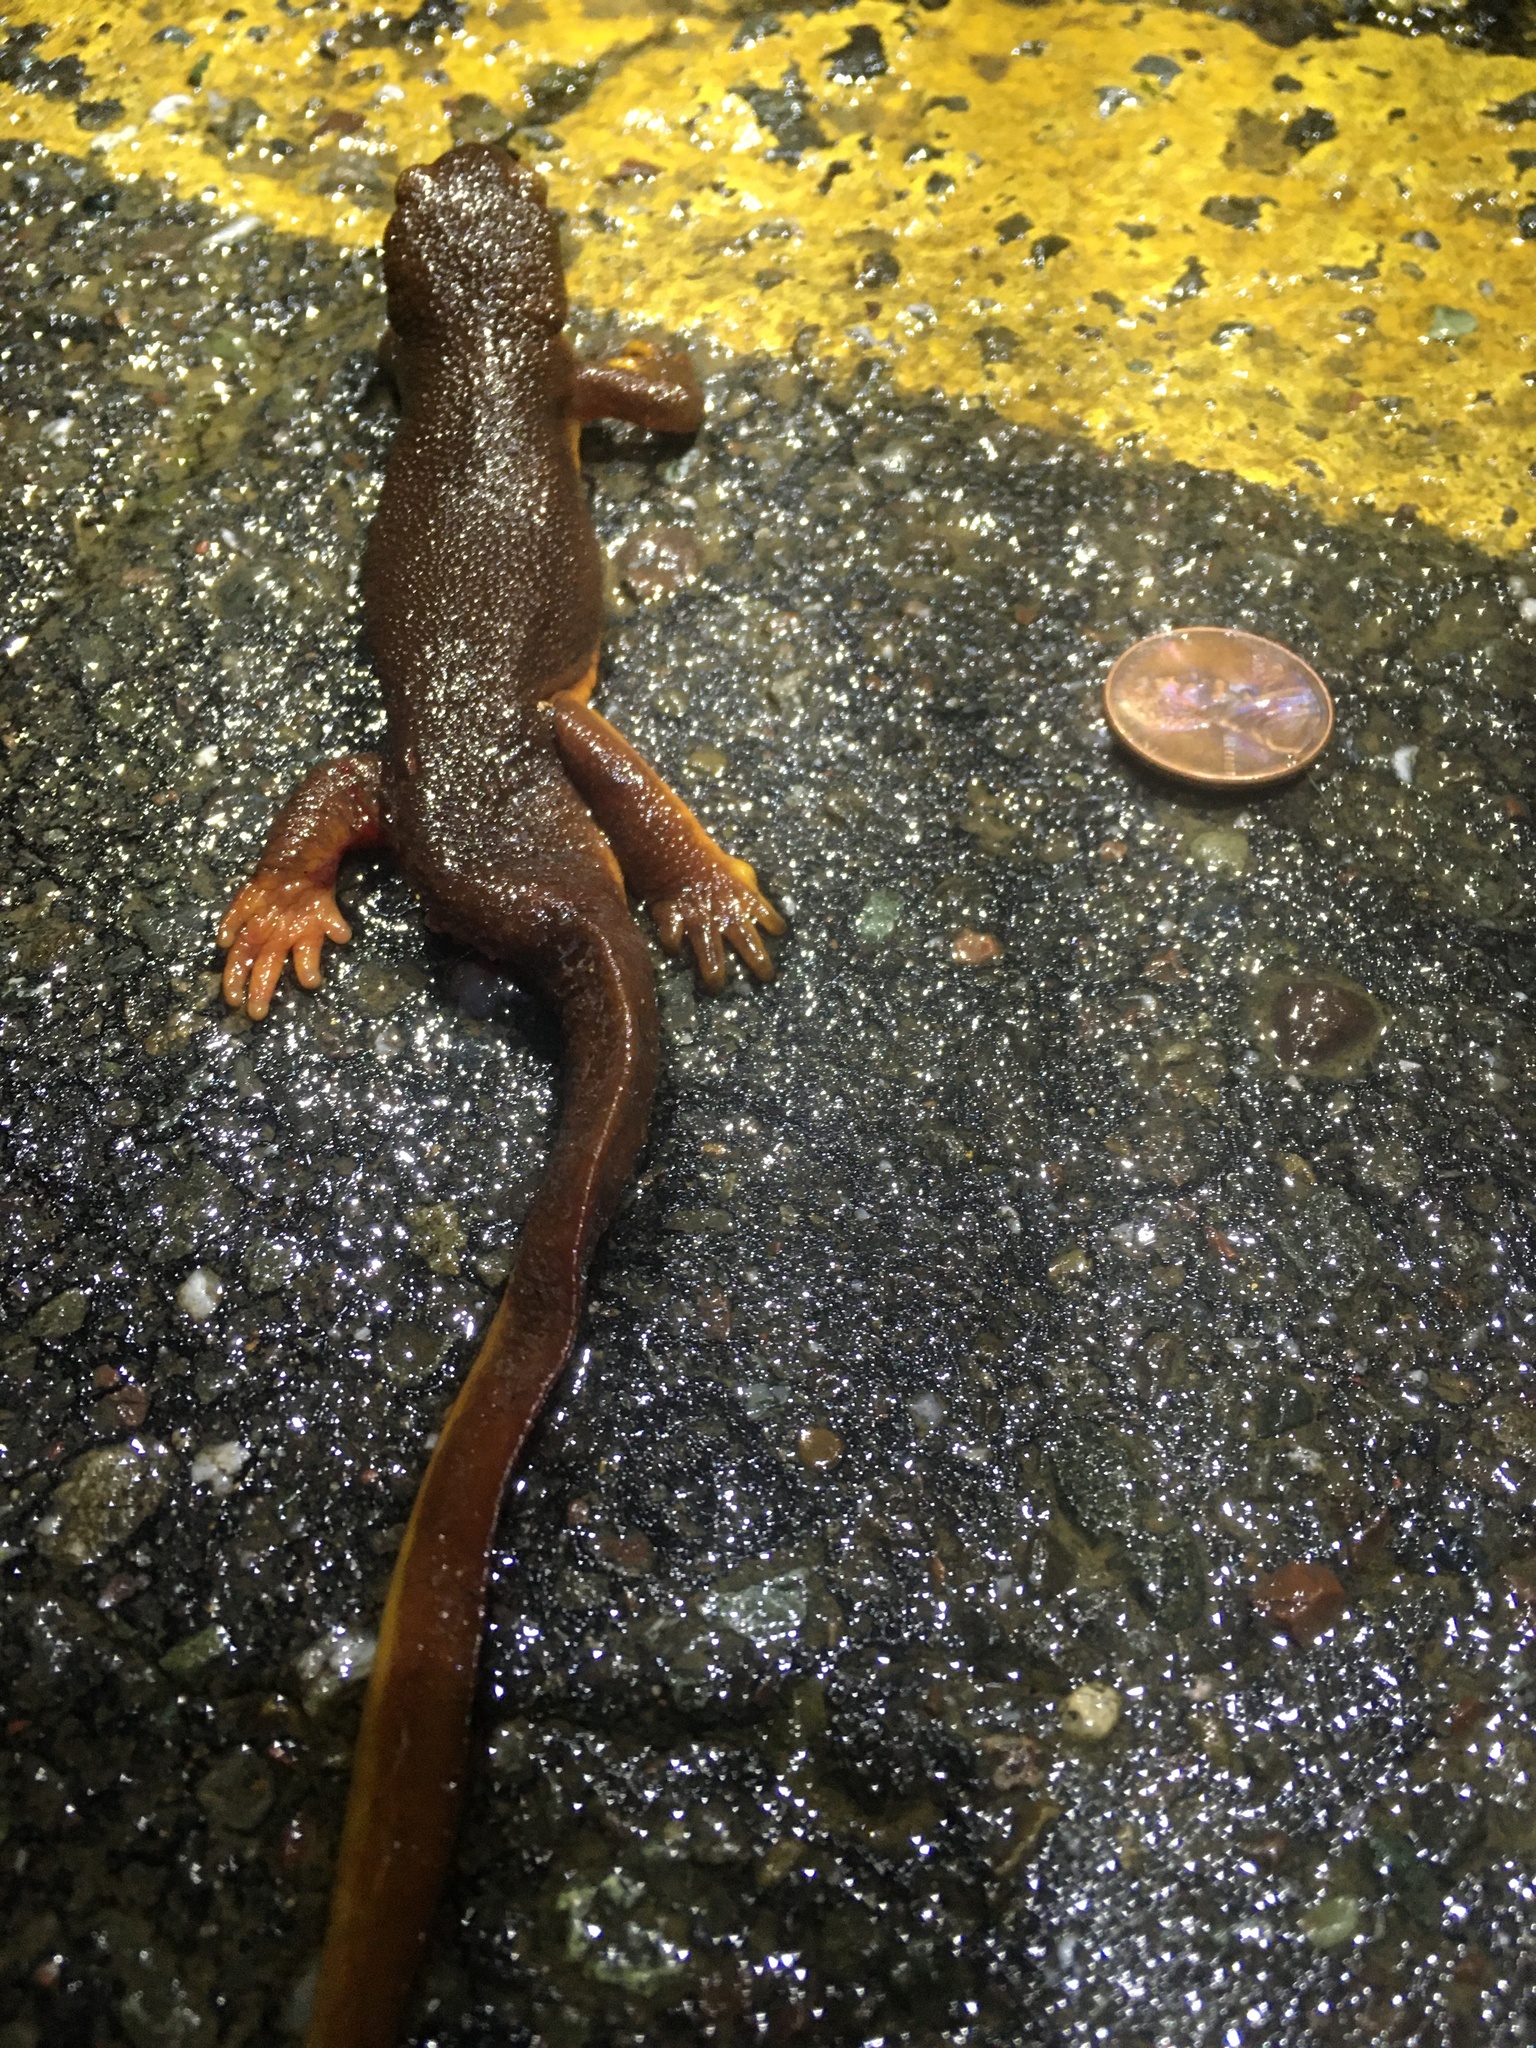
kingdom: Animalia
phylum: Chordata
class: Amphibia
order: Caudata
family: Salamandridae
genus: Taricha
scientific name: Taricha
